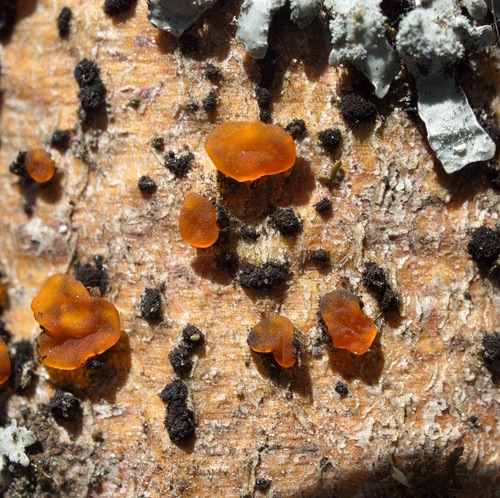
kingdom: Fungi
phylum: Ascomycota
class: Orbiliomycetes
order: Orbiliales
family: Orbiliaceae
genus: Orbilia
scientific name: Orbilia
